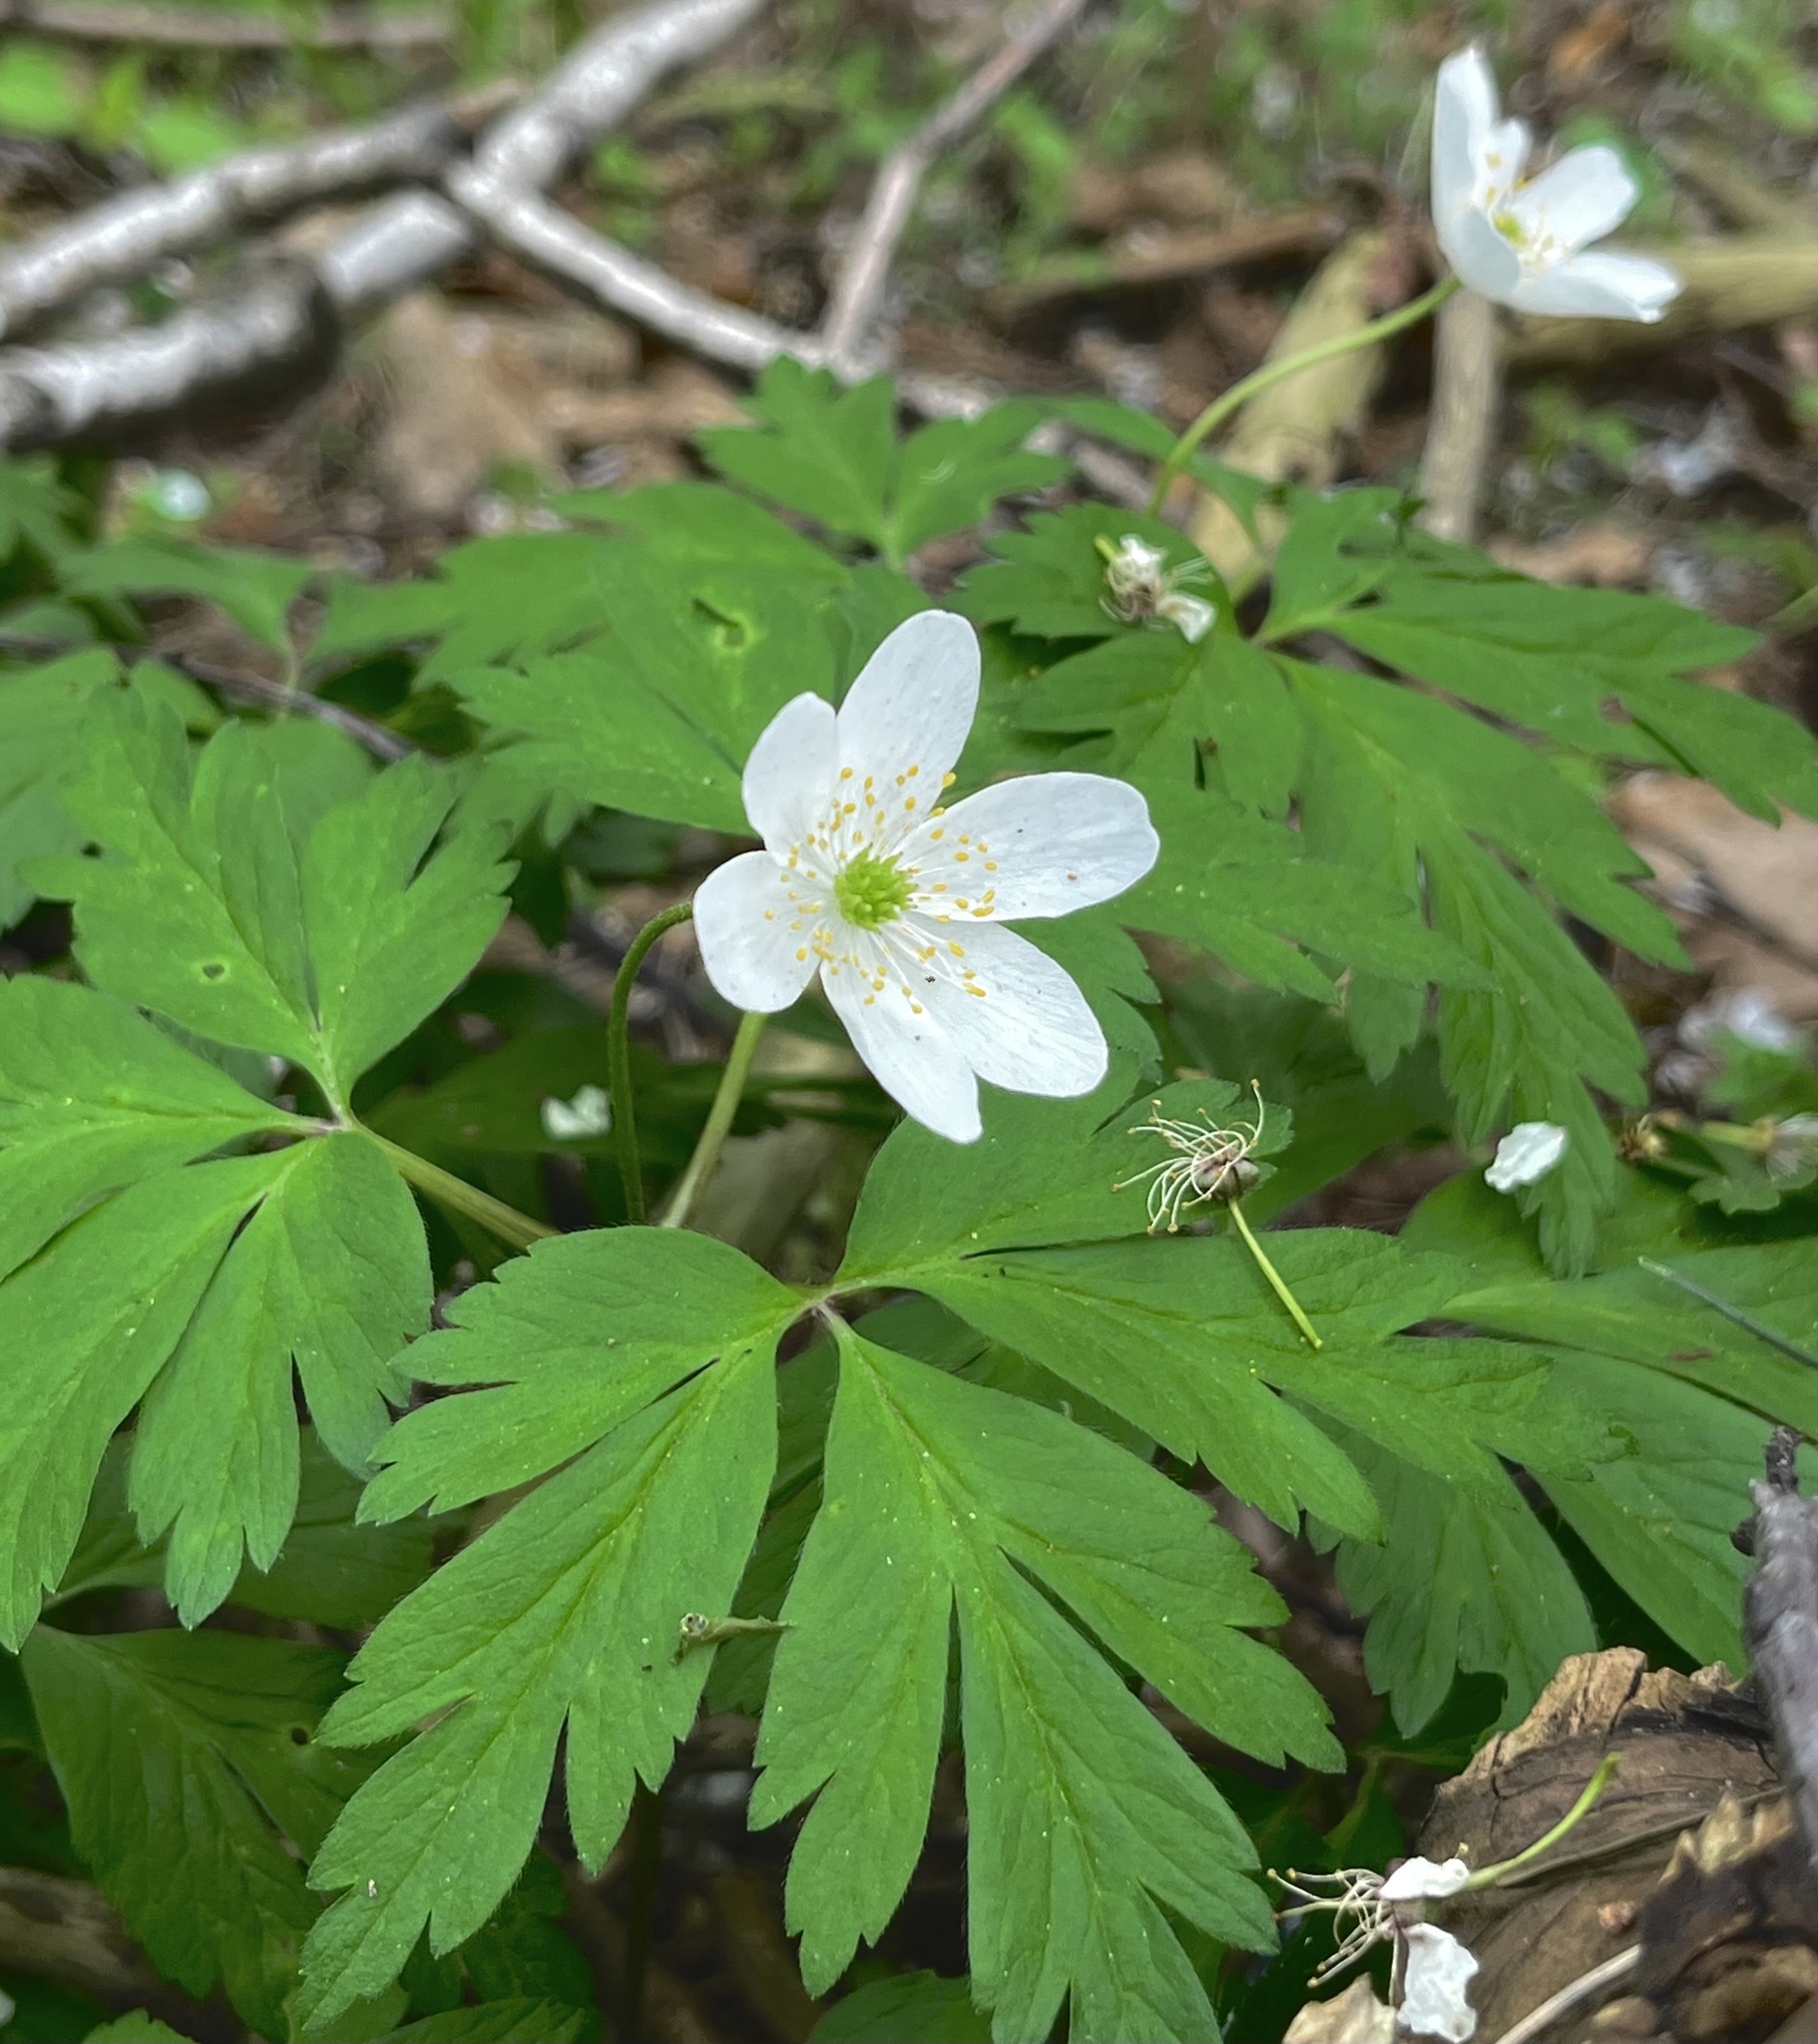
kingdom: Plantae
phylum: Tracheophyta
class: Magnoliopsida
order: Ranunculales
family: Ranunculaceae
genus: Anemone
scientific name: Anemone nemorosa
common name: Wood anemone
